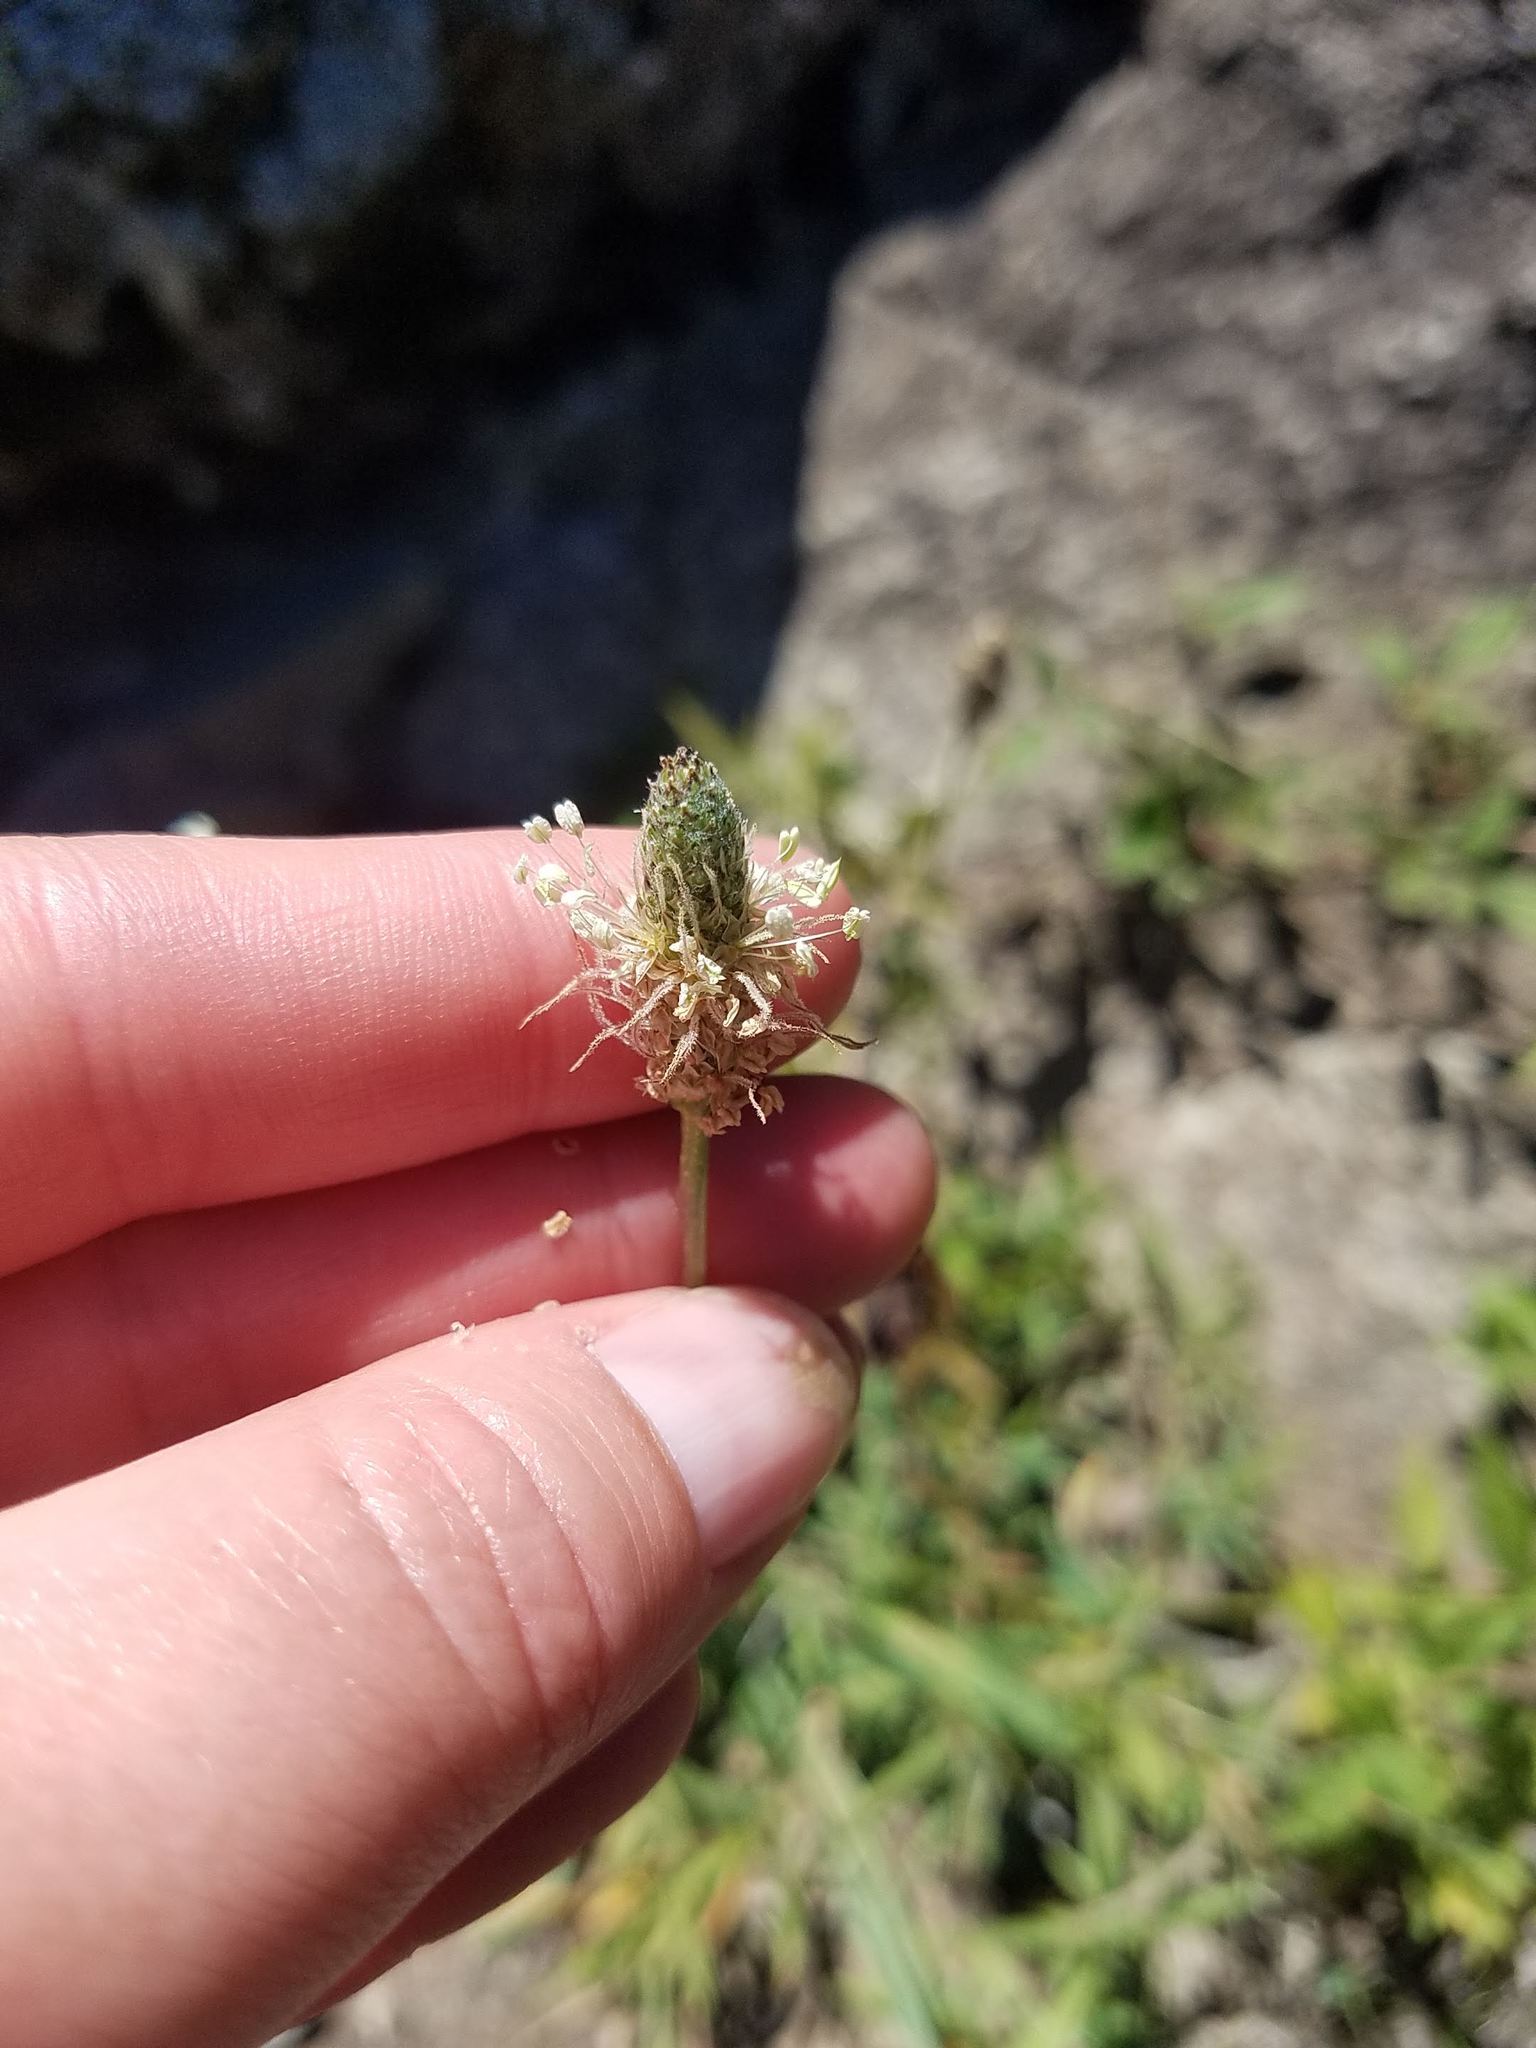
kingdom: Plantae
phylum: Tracheophyta
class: Magnoliopsida
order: Lamiales
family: Plantaginaceae
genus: Plantago
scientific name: Plantago lanceolata
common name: Ribwort plantain
